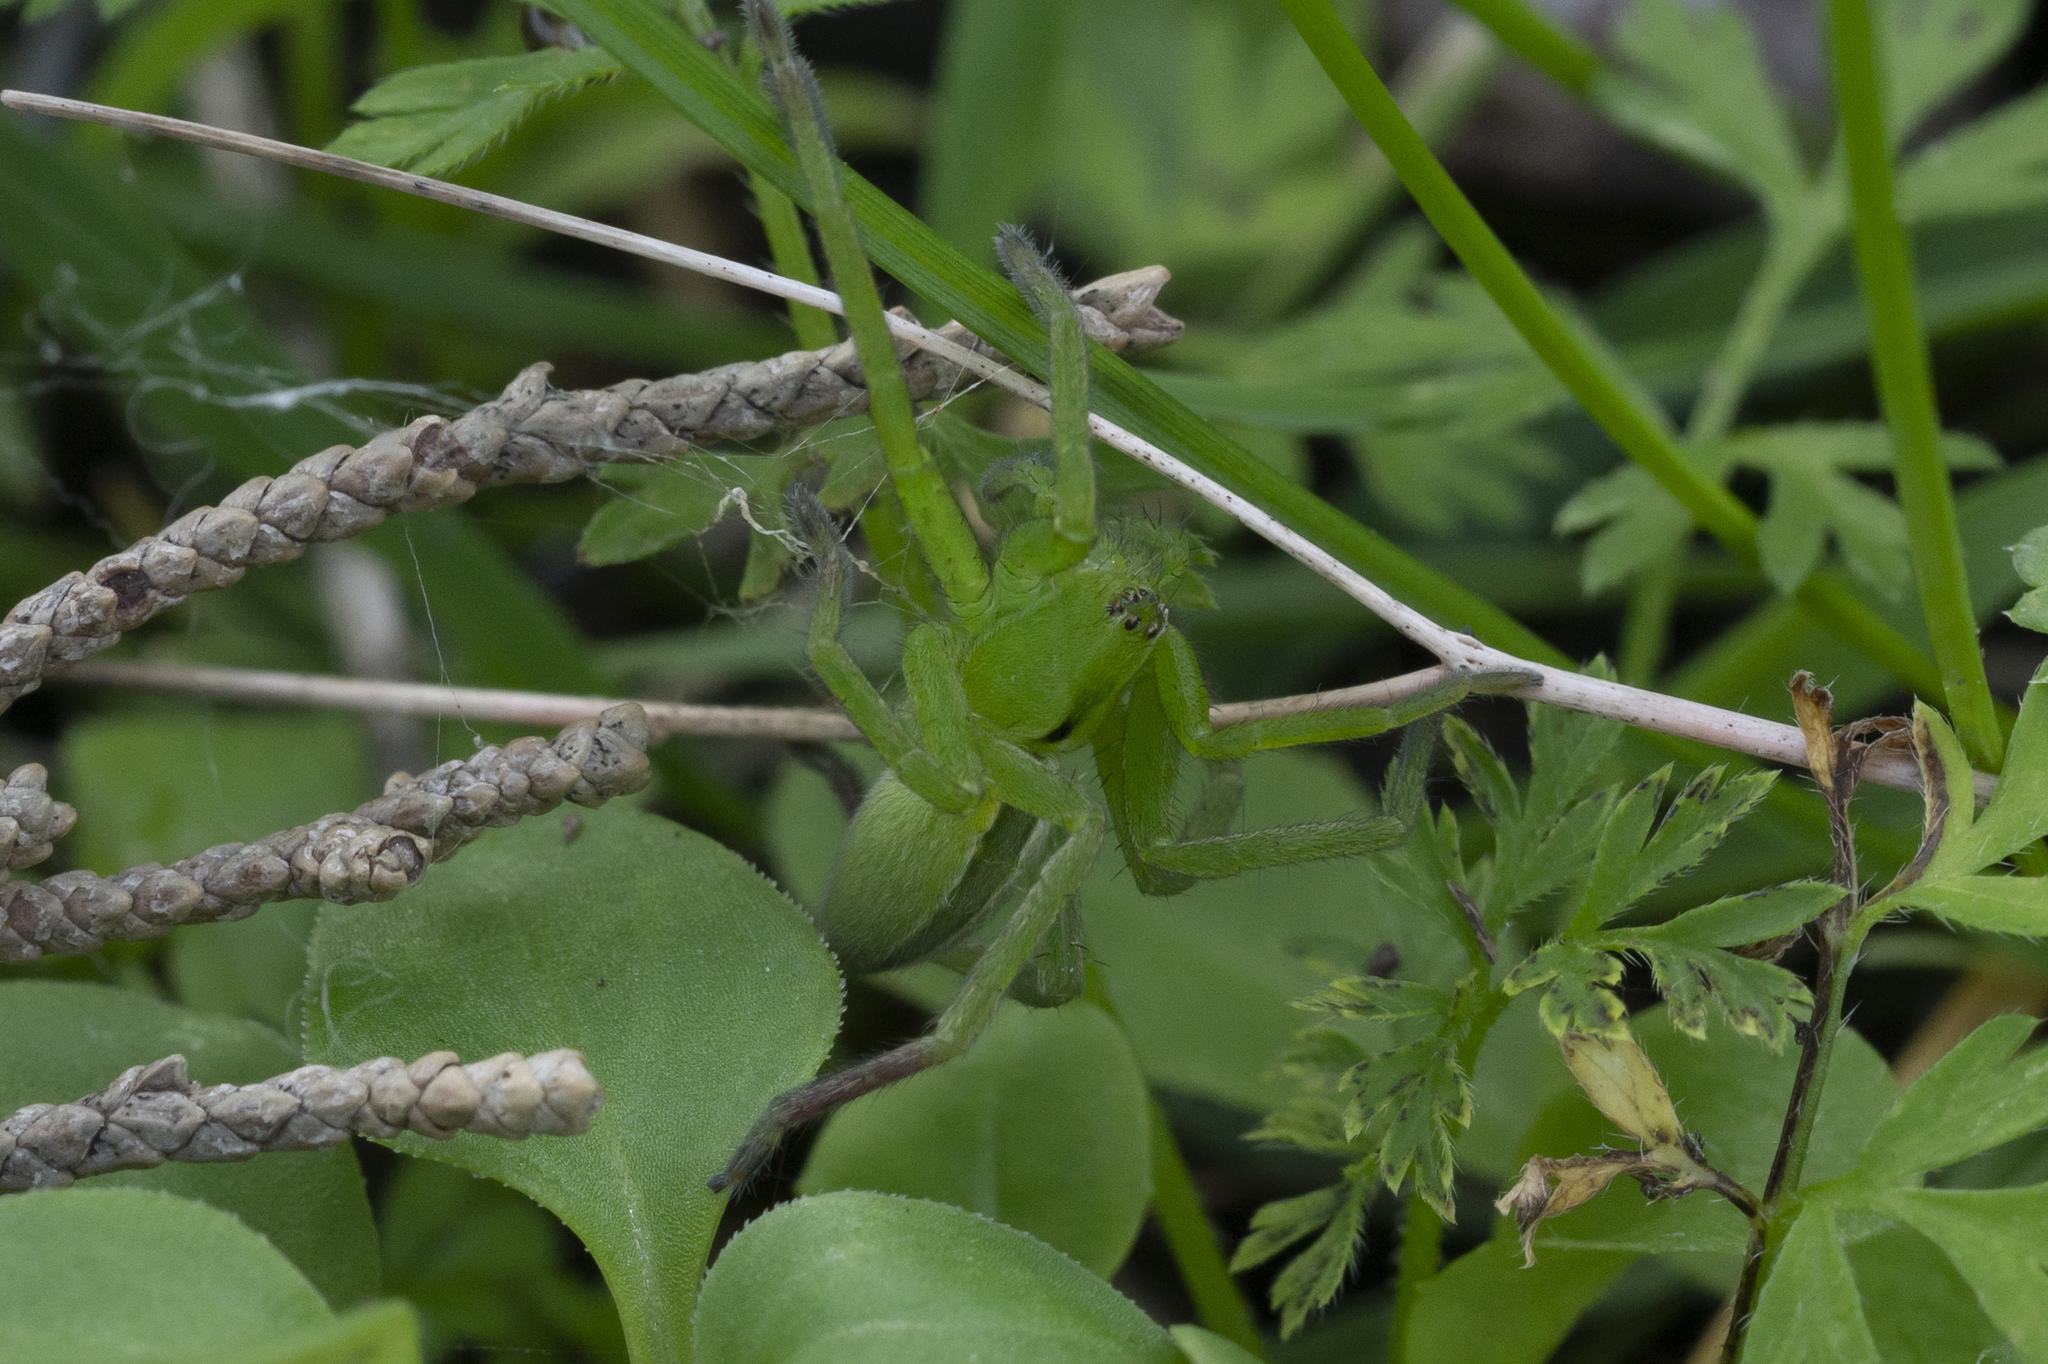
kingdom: Animalia
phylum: Arthropoda
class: Arachnida
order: Araneae
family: Sparassidae
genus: Micrommata
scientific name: Micrommata ligurina
